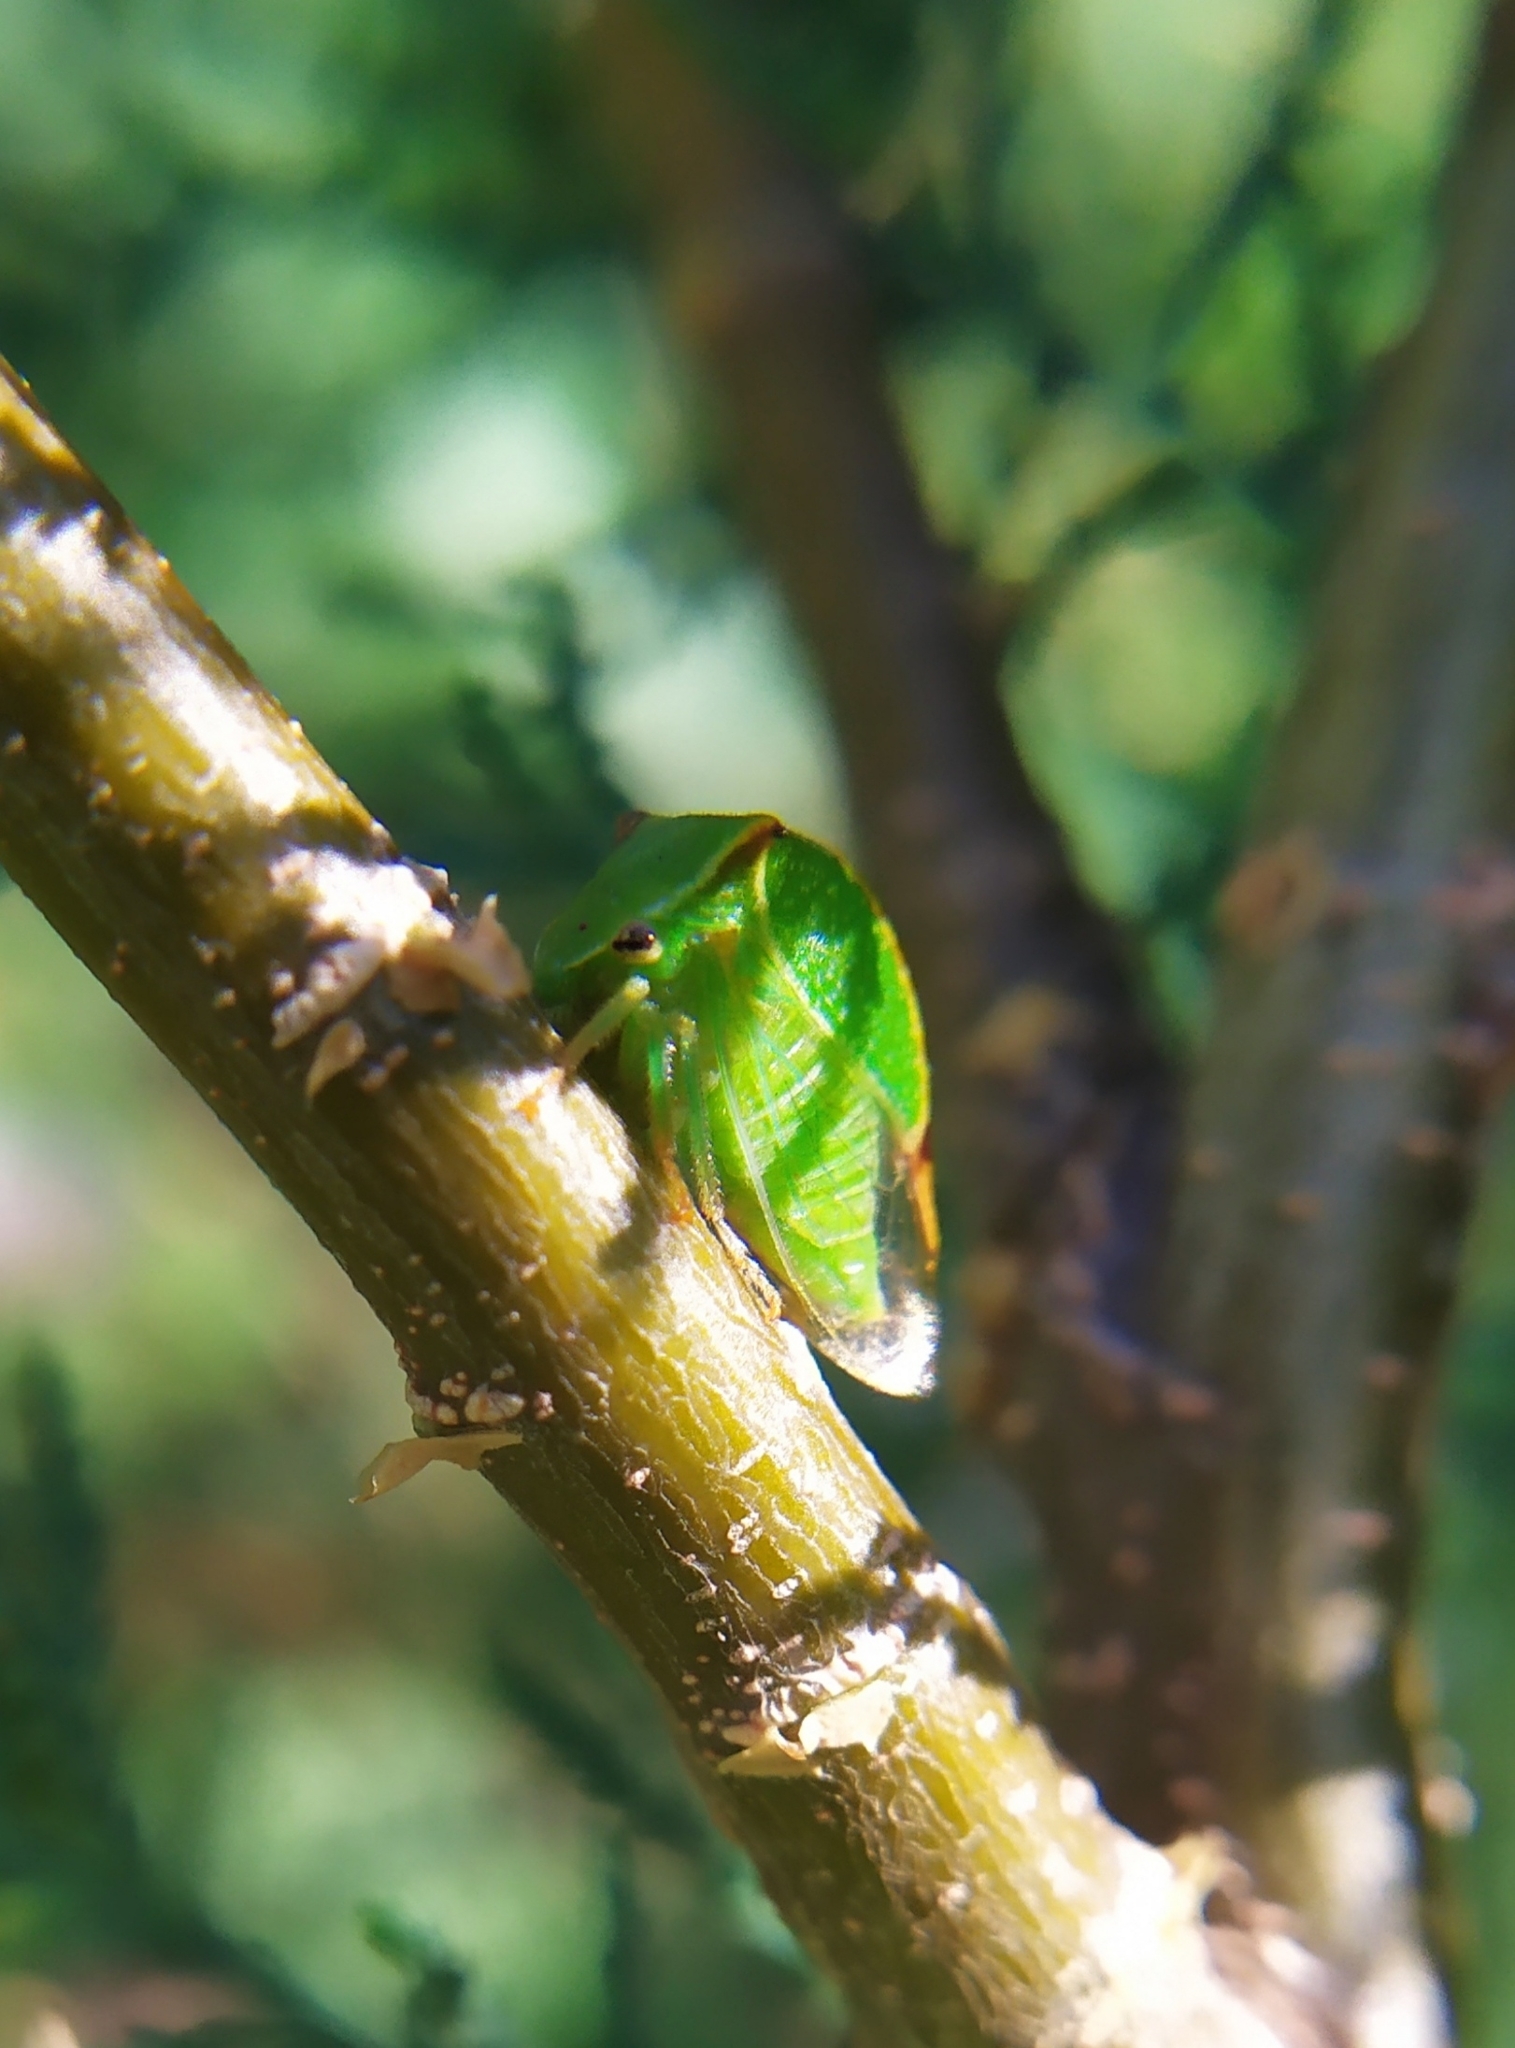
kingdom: Animalia
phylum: Arthropoda
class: Insecta
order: Hemiptera
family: Membracidae
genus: Stictocephala
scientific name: Stictocephala bisonia
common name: American buffalo treehopper
